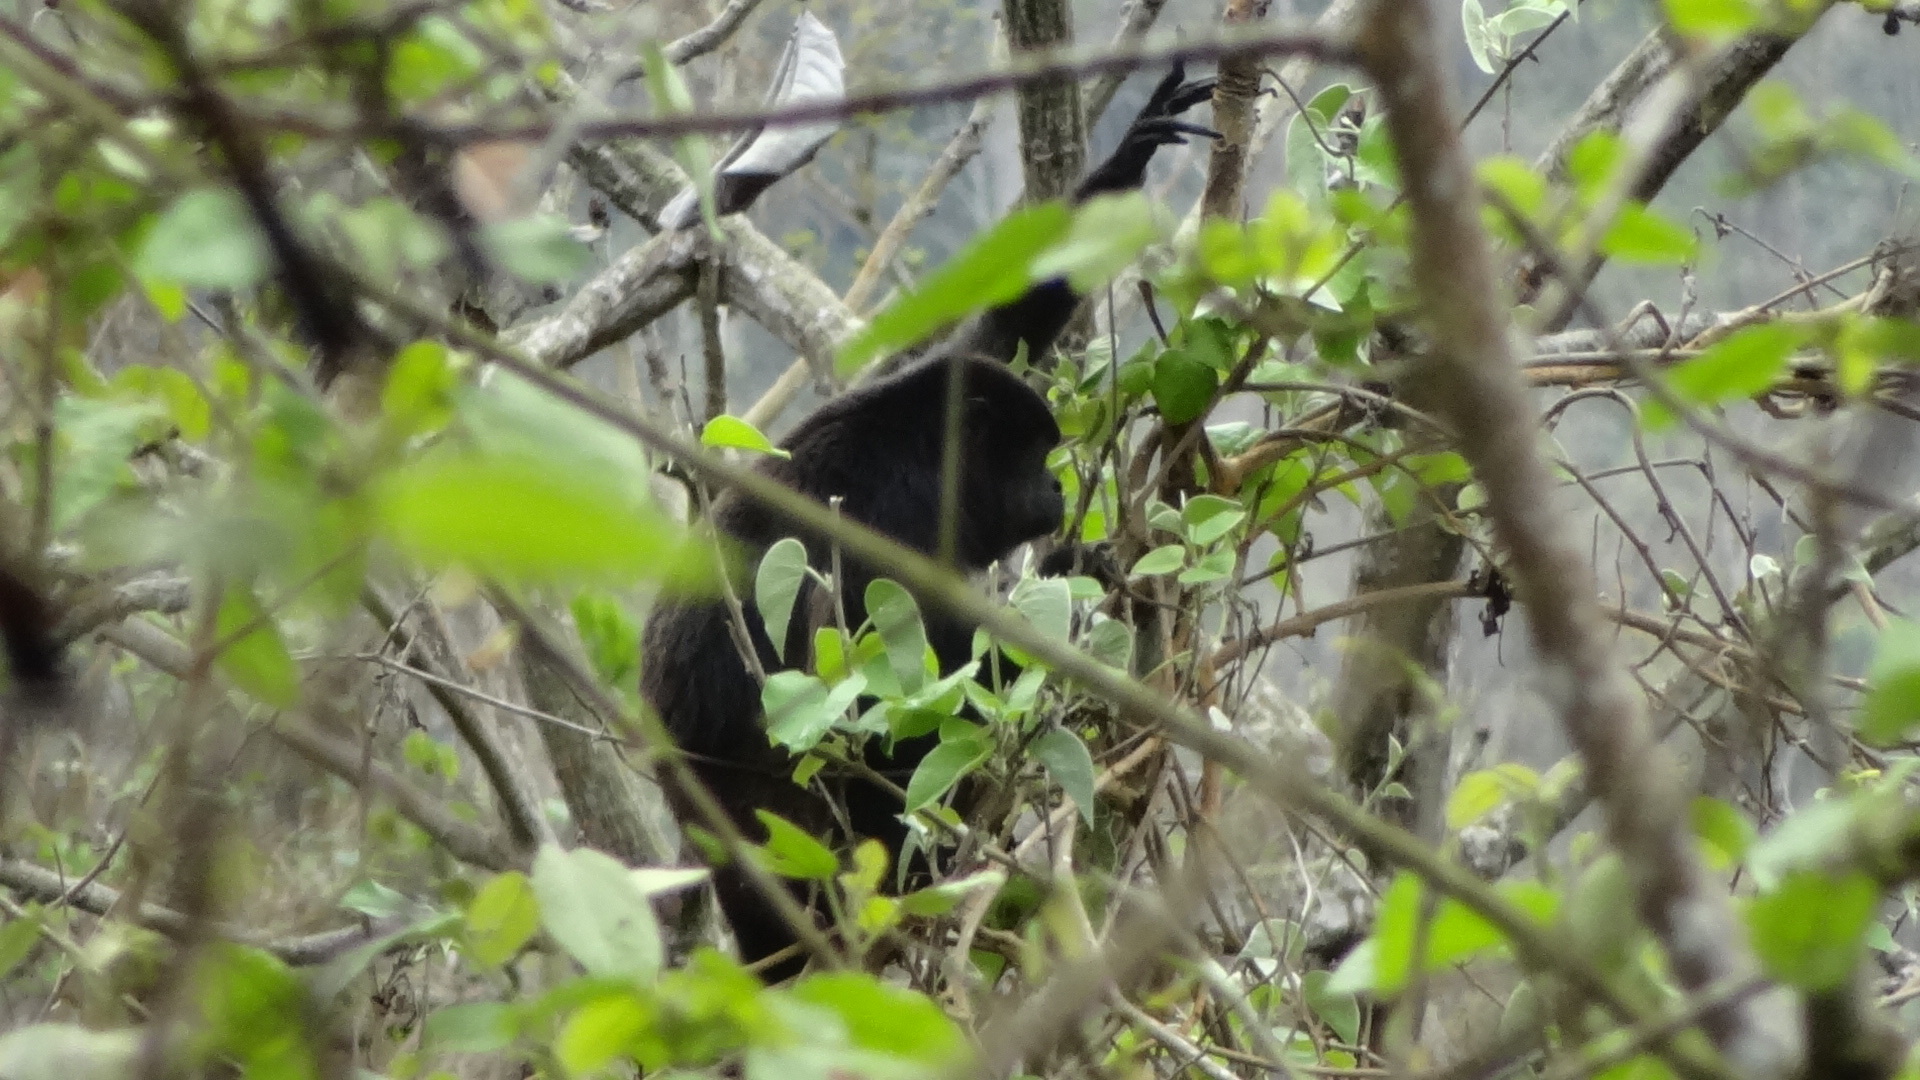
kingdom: Animalia
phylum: Chordata
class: Mammalia
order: Primates
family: Atelidae
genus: Alouatta
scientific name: Alouatta palliata
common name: Mantled howler
